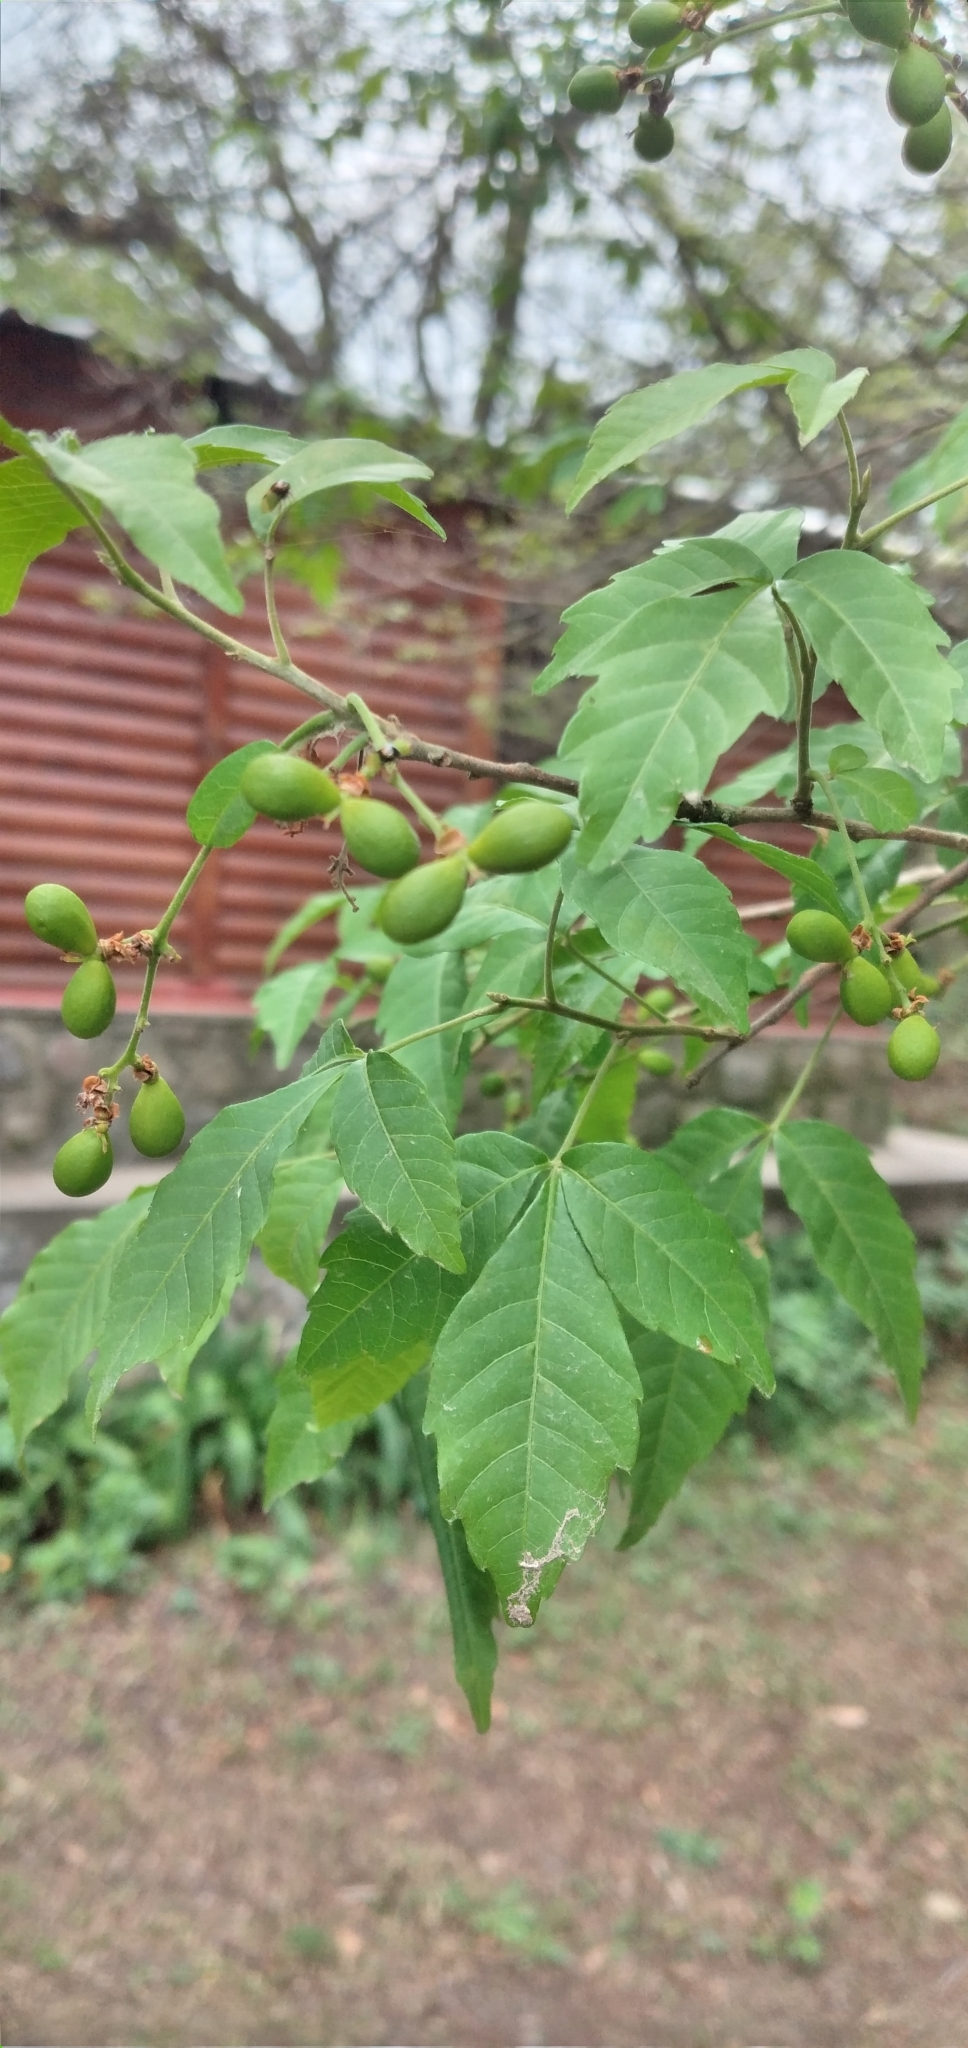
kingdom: Plantae
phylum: Tracheophyta
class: Magnoliopsida
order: Sapindales
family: Sapindaceae
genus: Allophylus
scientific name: Allophylus edulis
